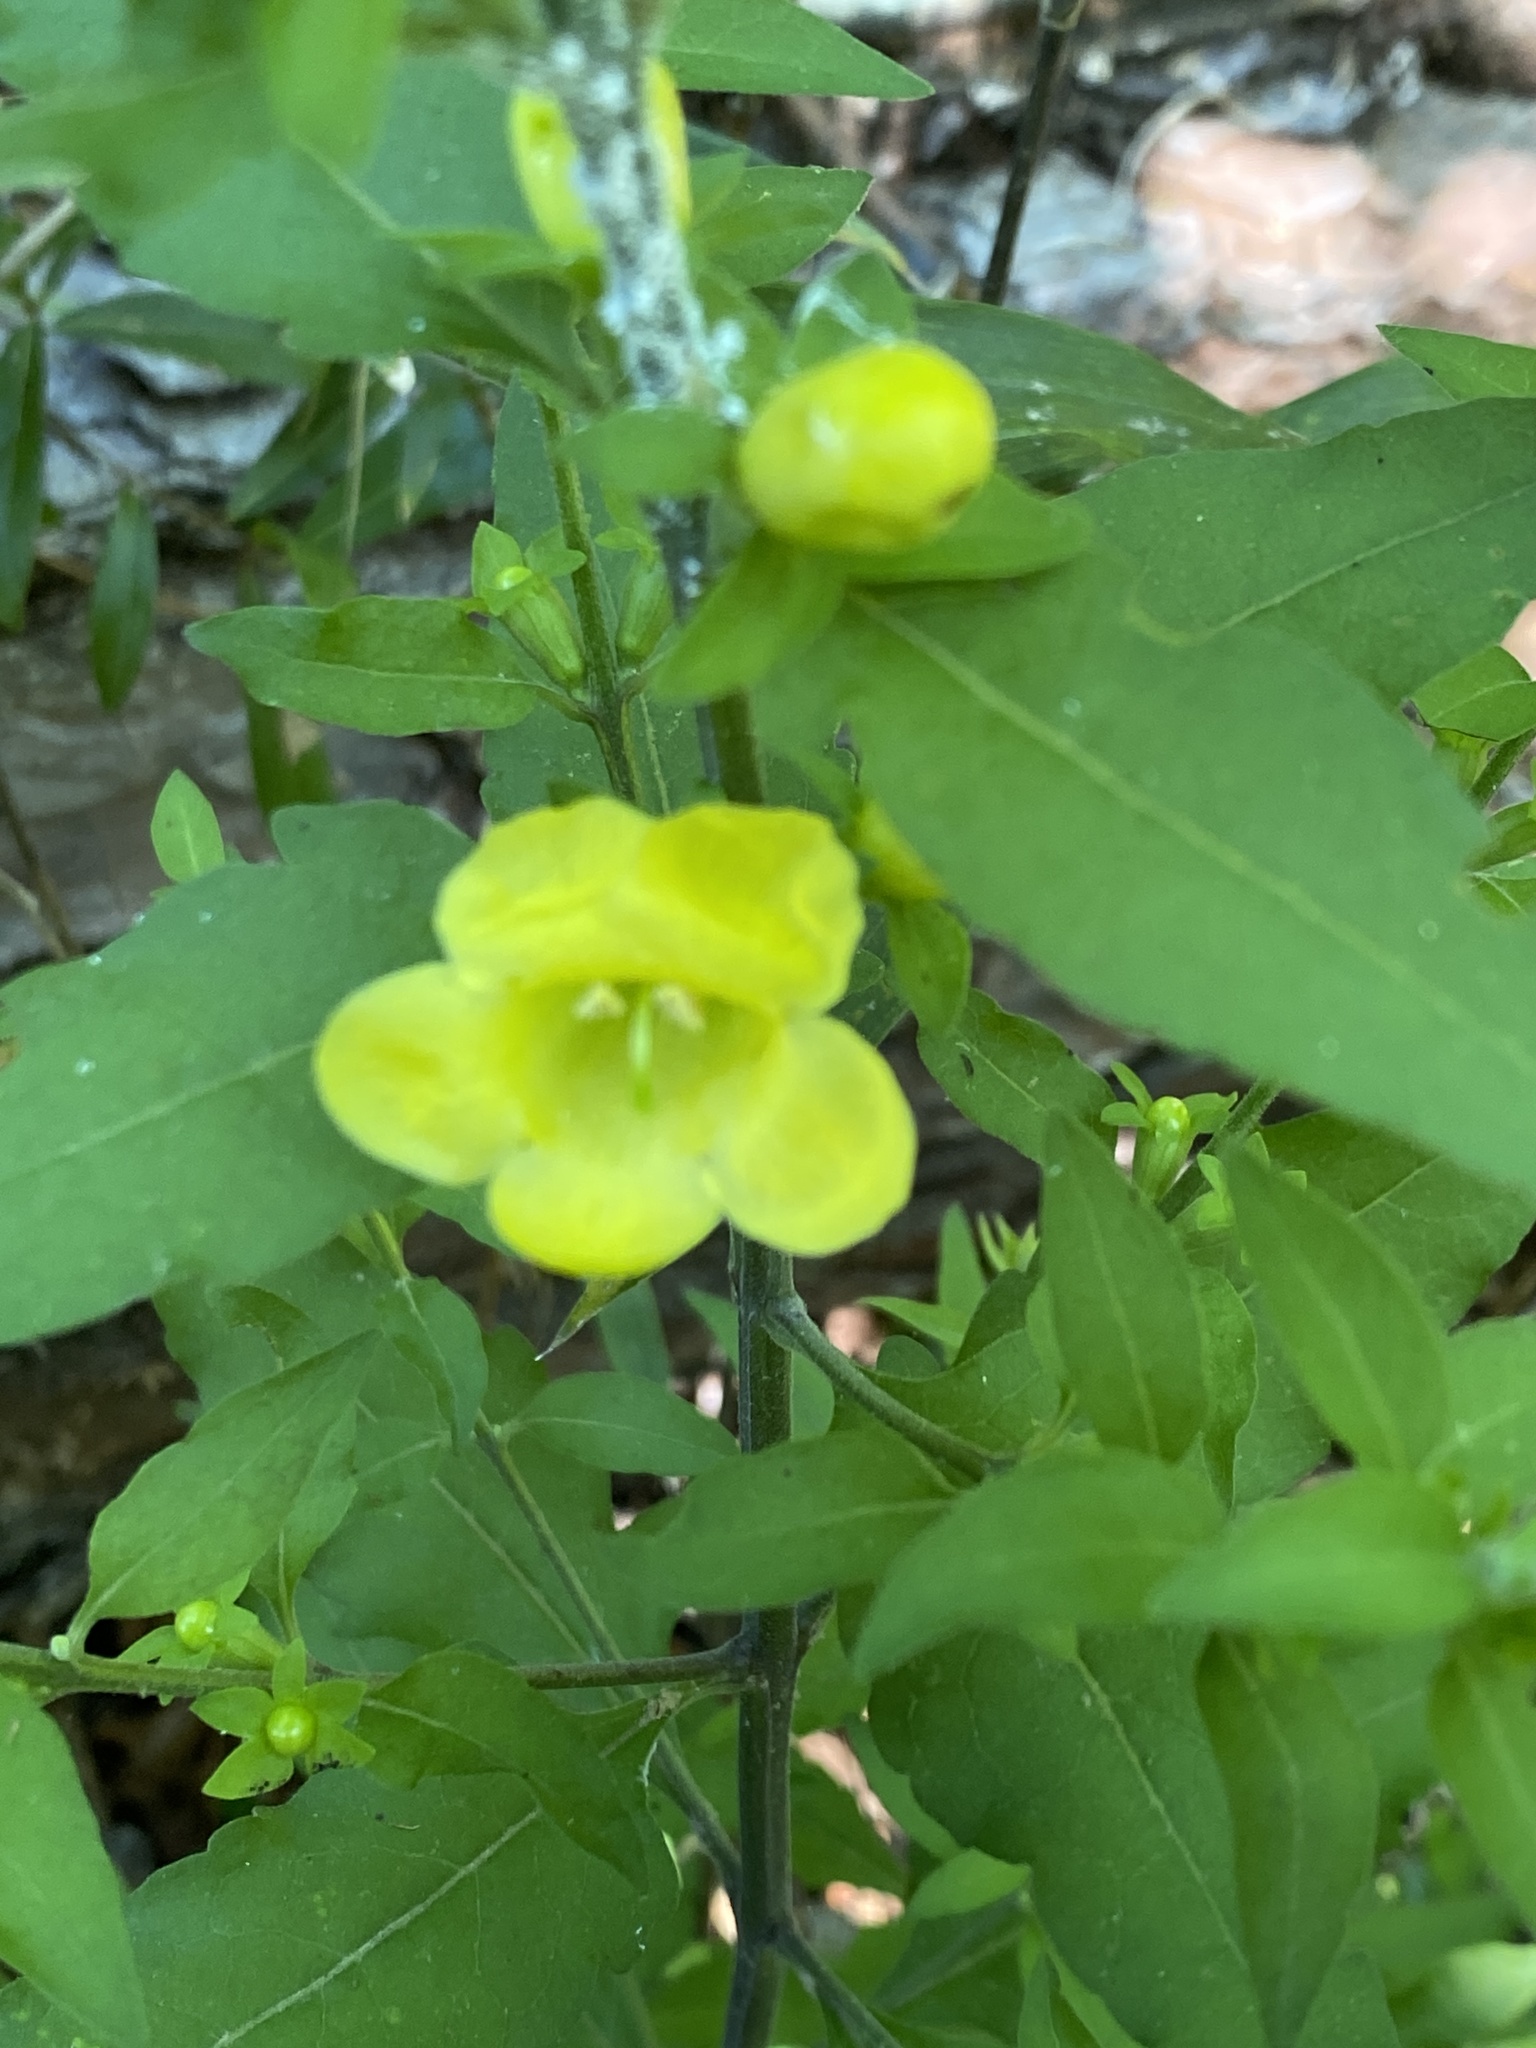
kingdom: Plantae
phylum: Tracheophyta
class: Magnoliopsida
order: Lamiales
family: Orobanchaceae
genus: Aureolaria
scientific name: Aureolaria virginica
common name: Downy false foxglove
